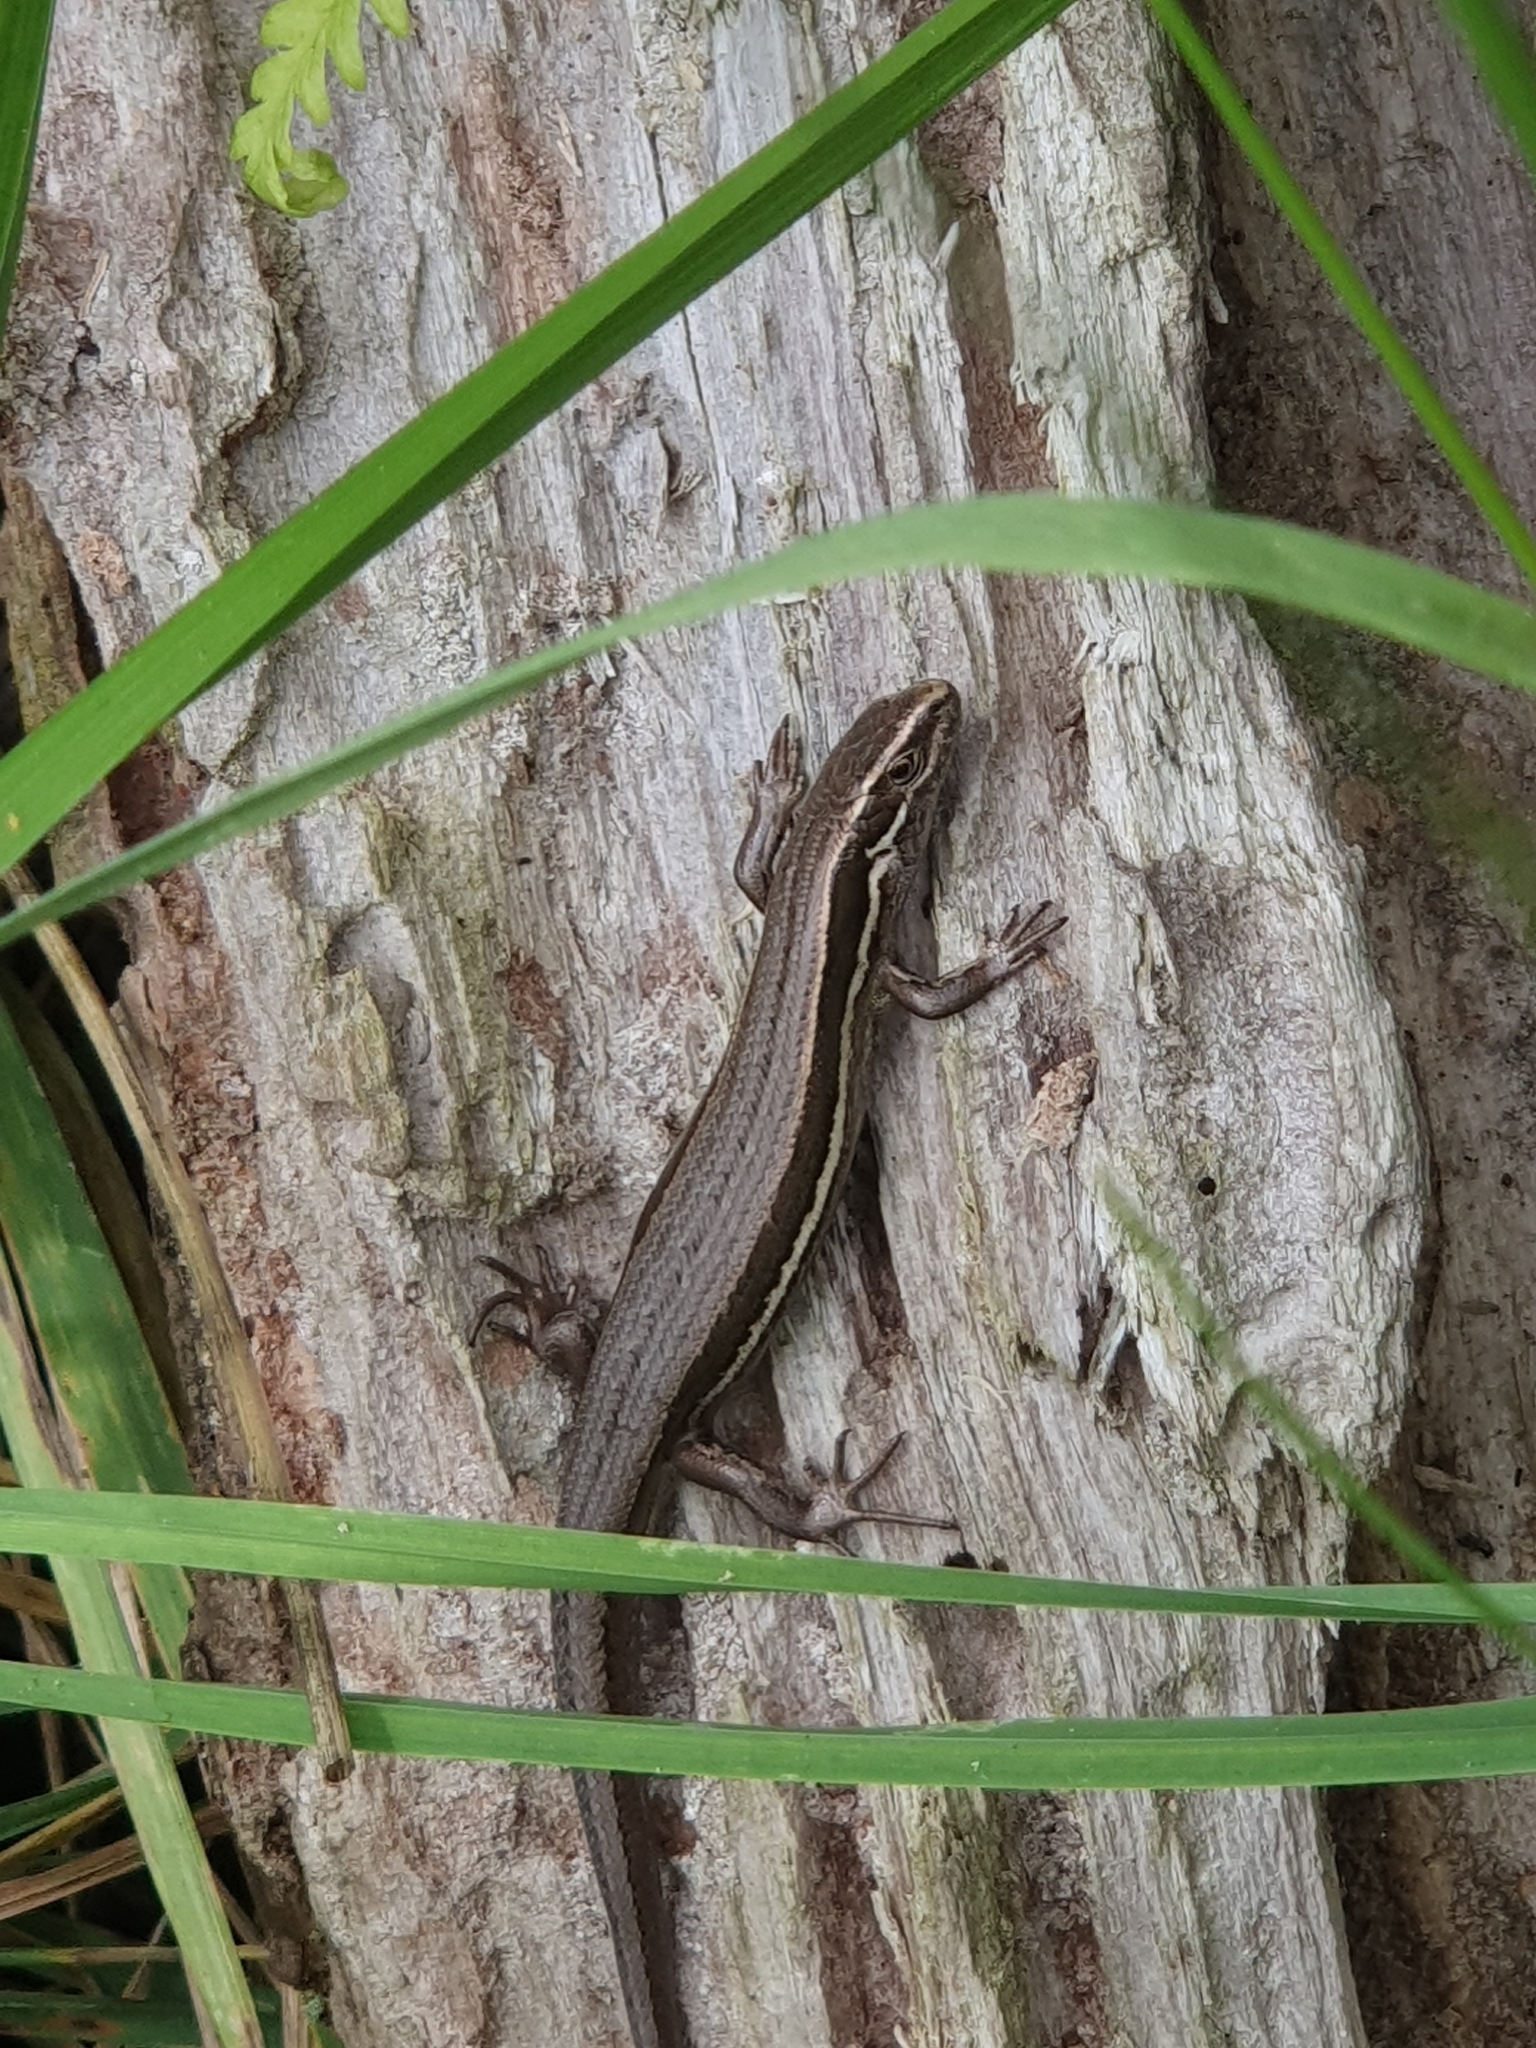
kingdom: Animalia
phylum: Chordata
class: Squamata
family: Scincidae
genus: Oligosoma
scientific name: Oligosoma polychroma
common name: Common new zealand skink
